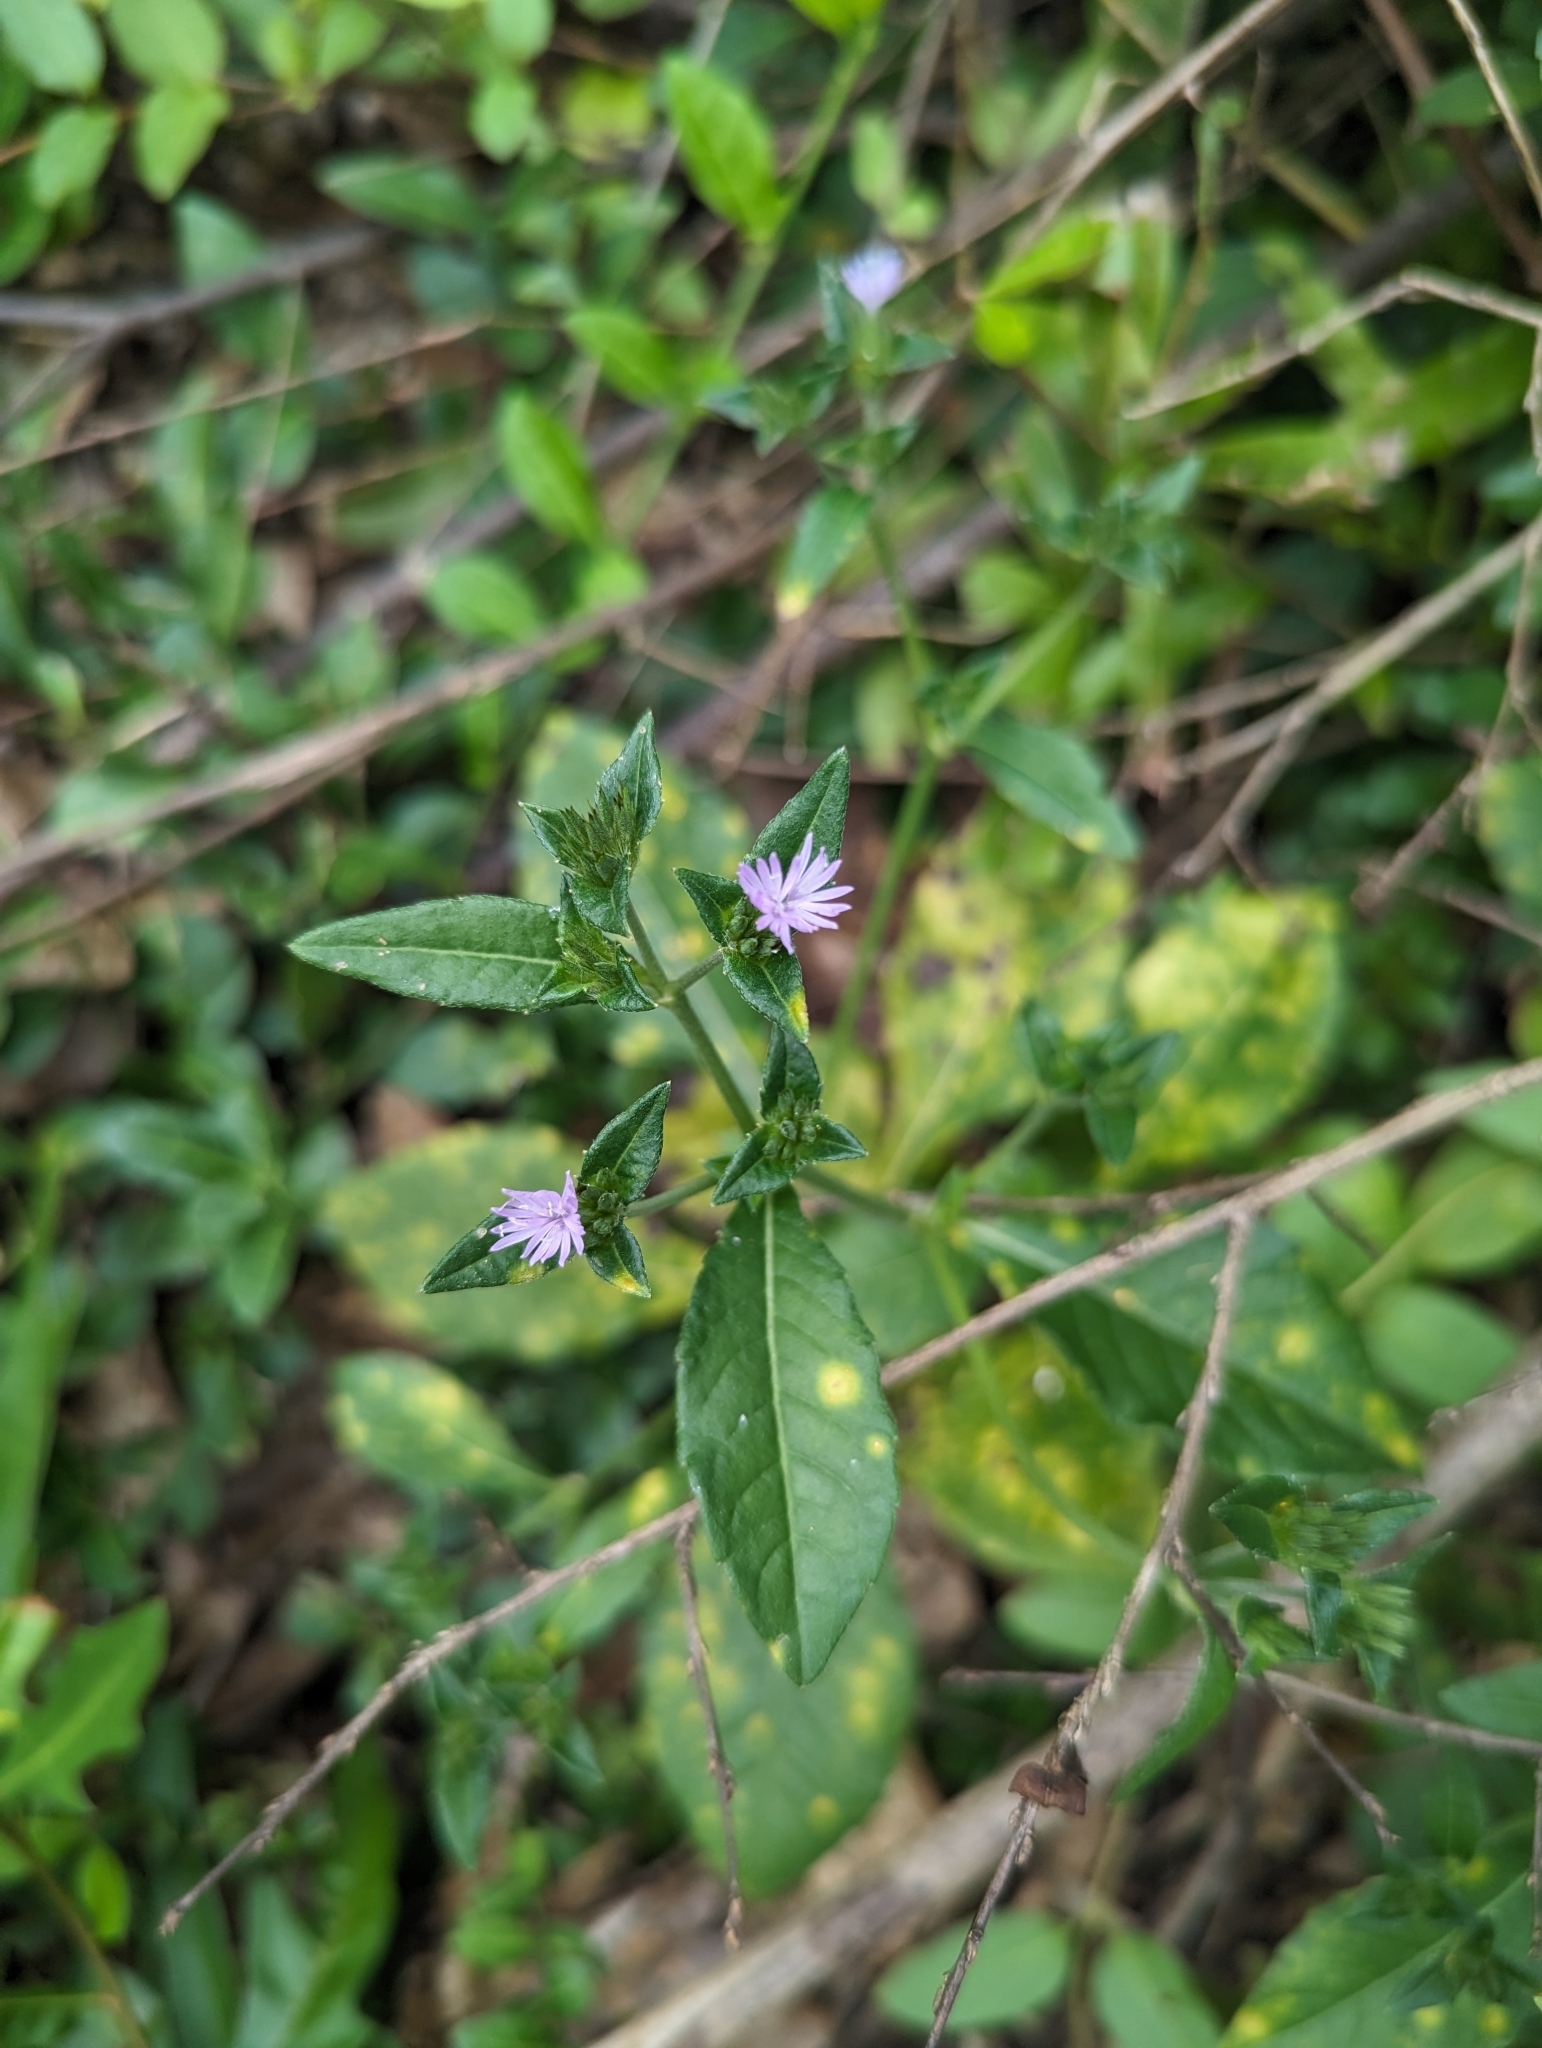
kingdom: Plantae
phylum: Tracheophyta
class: Magnoliopsida
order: Asterales
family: Asteraceae
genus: Elephantopus
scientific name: Elephantopus carolinianus
